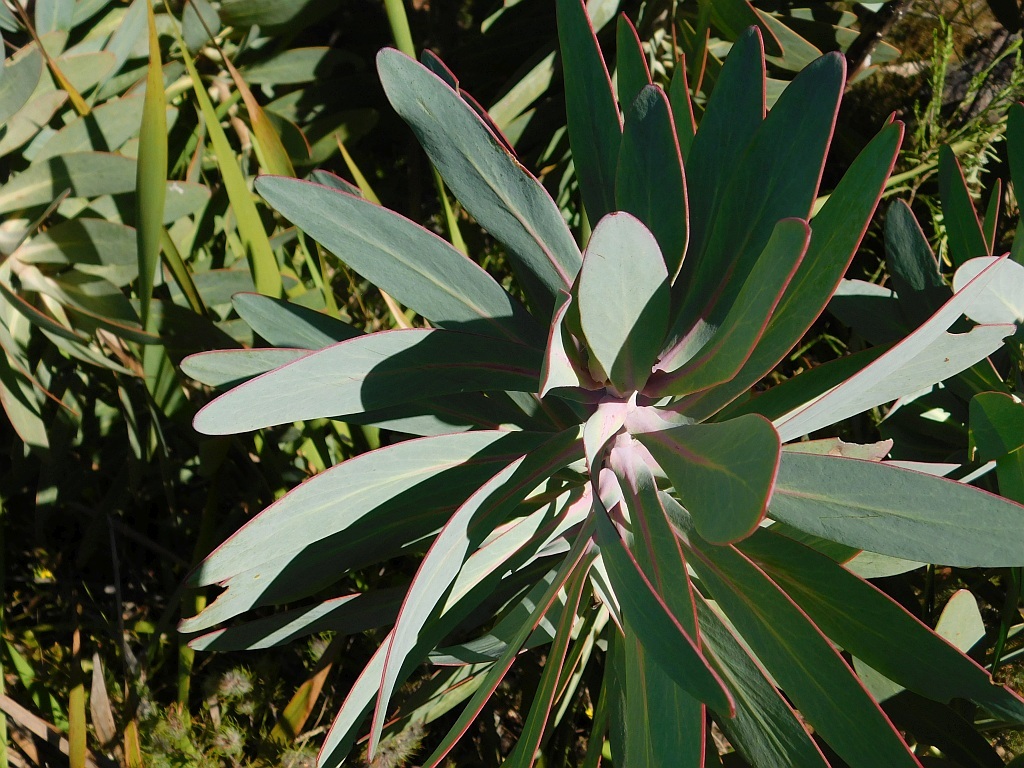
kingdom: Plantae
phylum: Tracheophyta
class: Magnoliopsida
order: Proteales
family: Proteaceae
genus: Protea
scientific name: Protea nitida
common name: Tree protea
